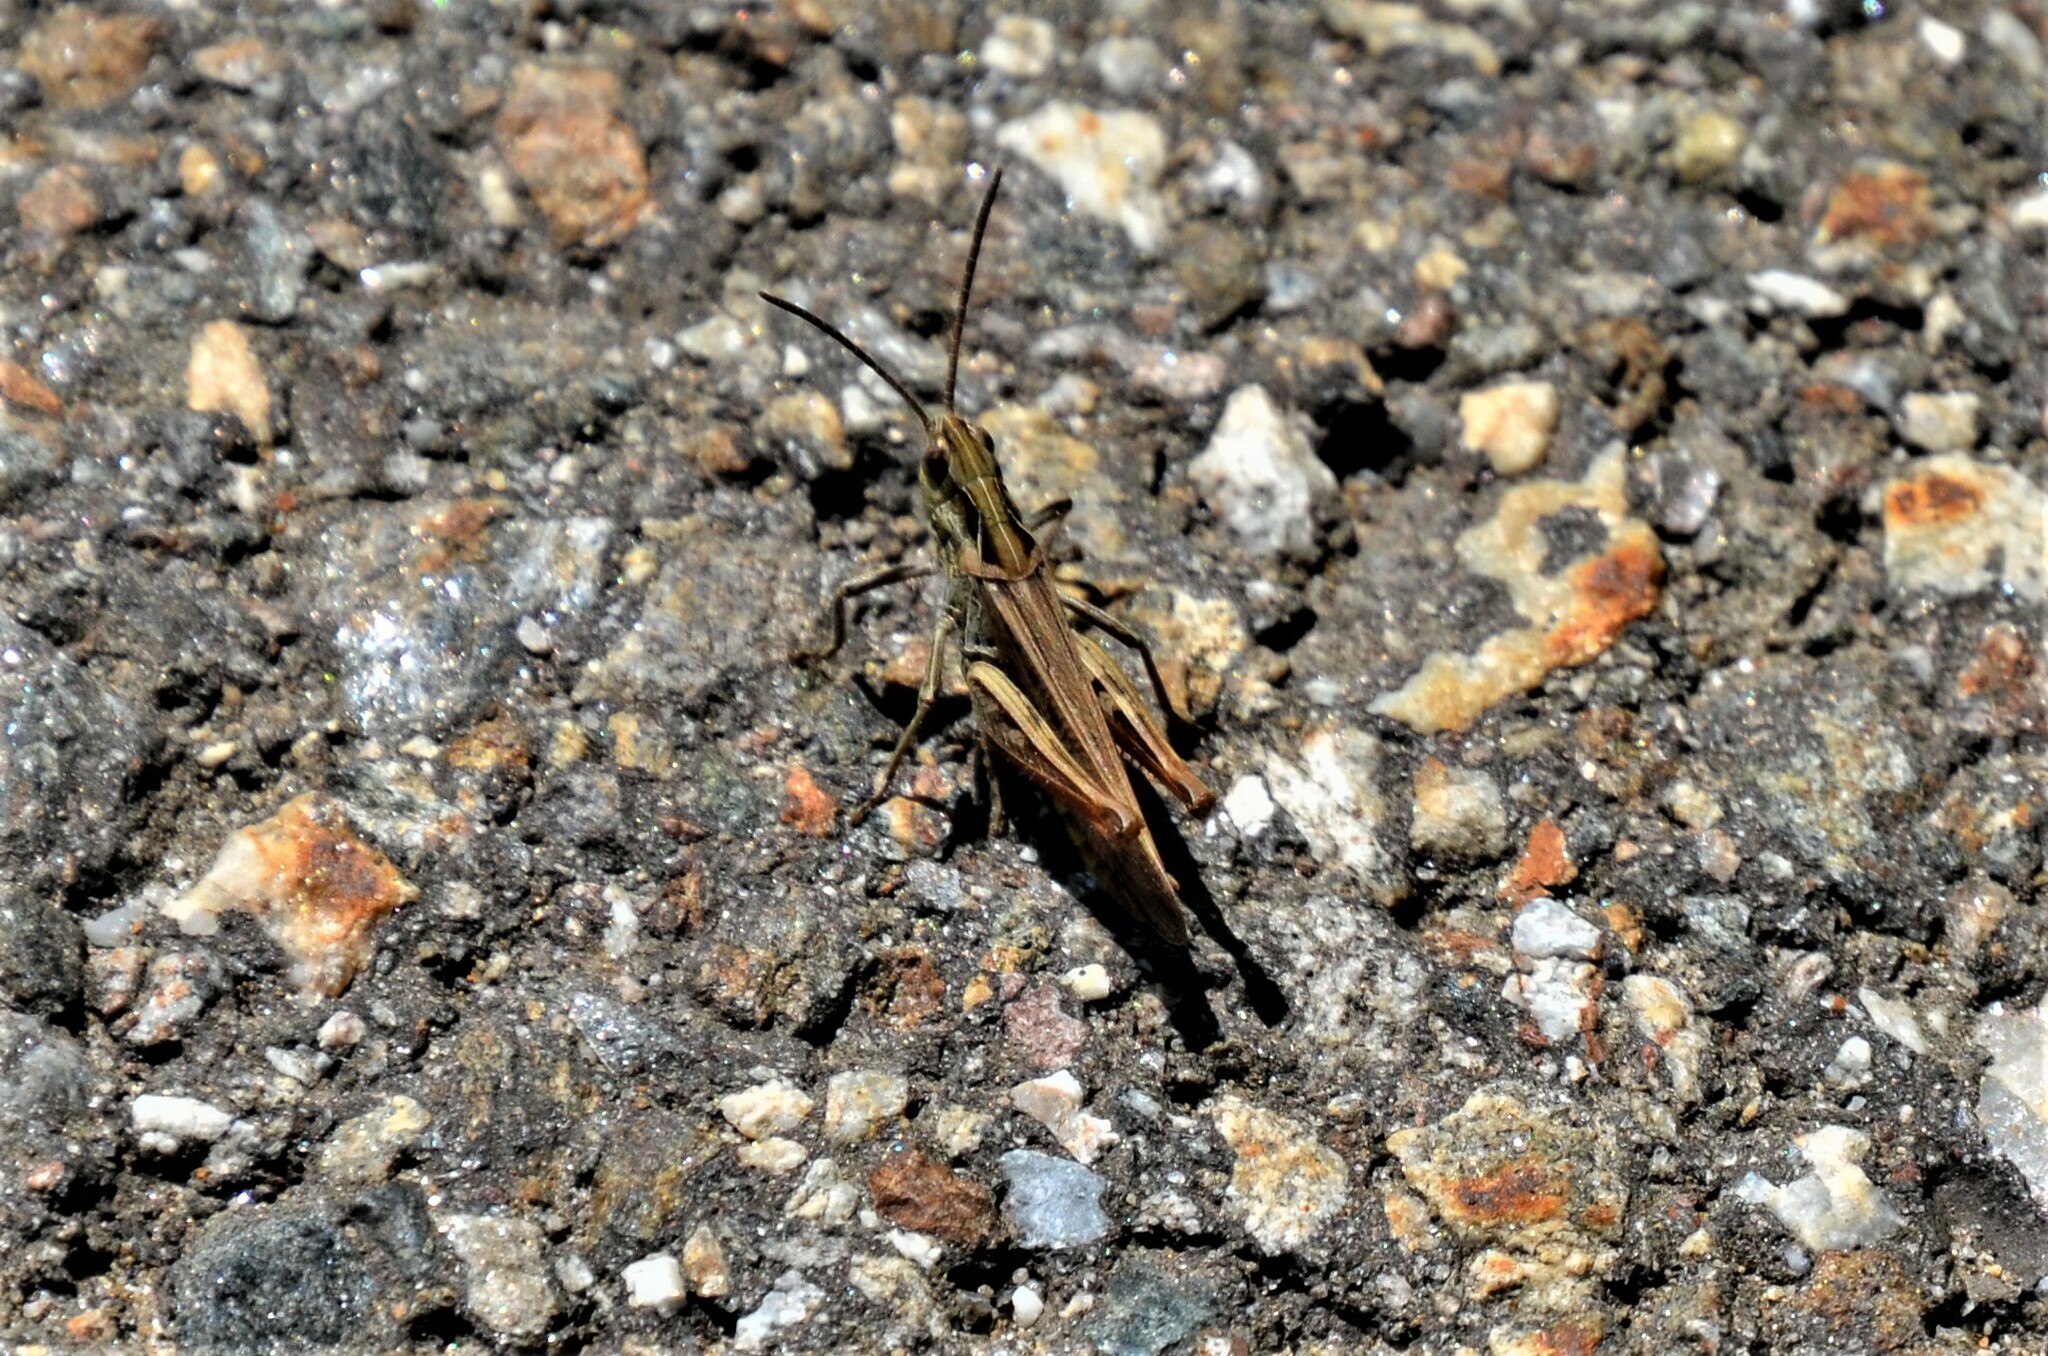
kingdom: Animalia
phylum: Arthropoda
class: Insecta
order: Orthoptera
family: Acrididae
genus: Chorthippus
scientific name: Chorthippus biguttulus
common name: Bow-winged grasshopper
